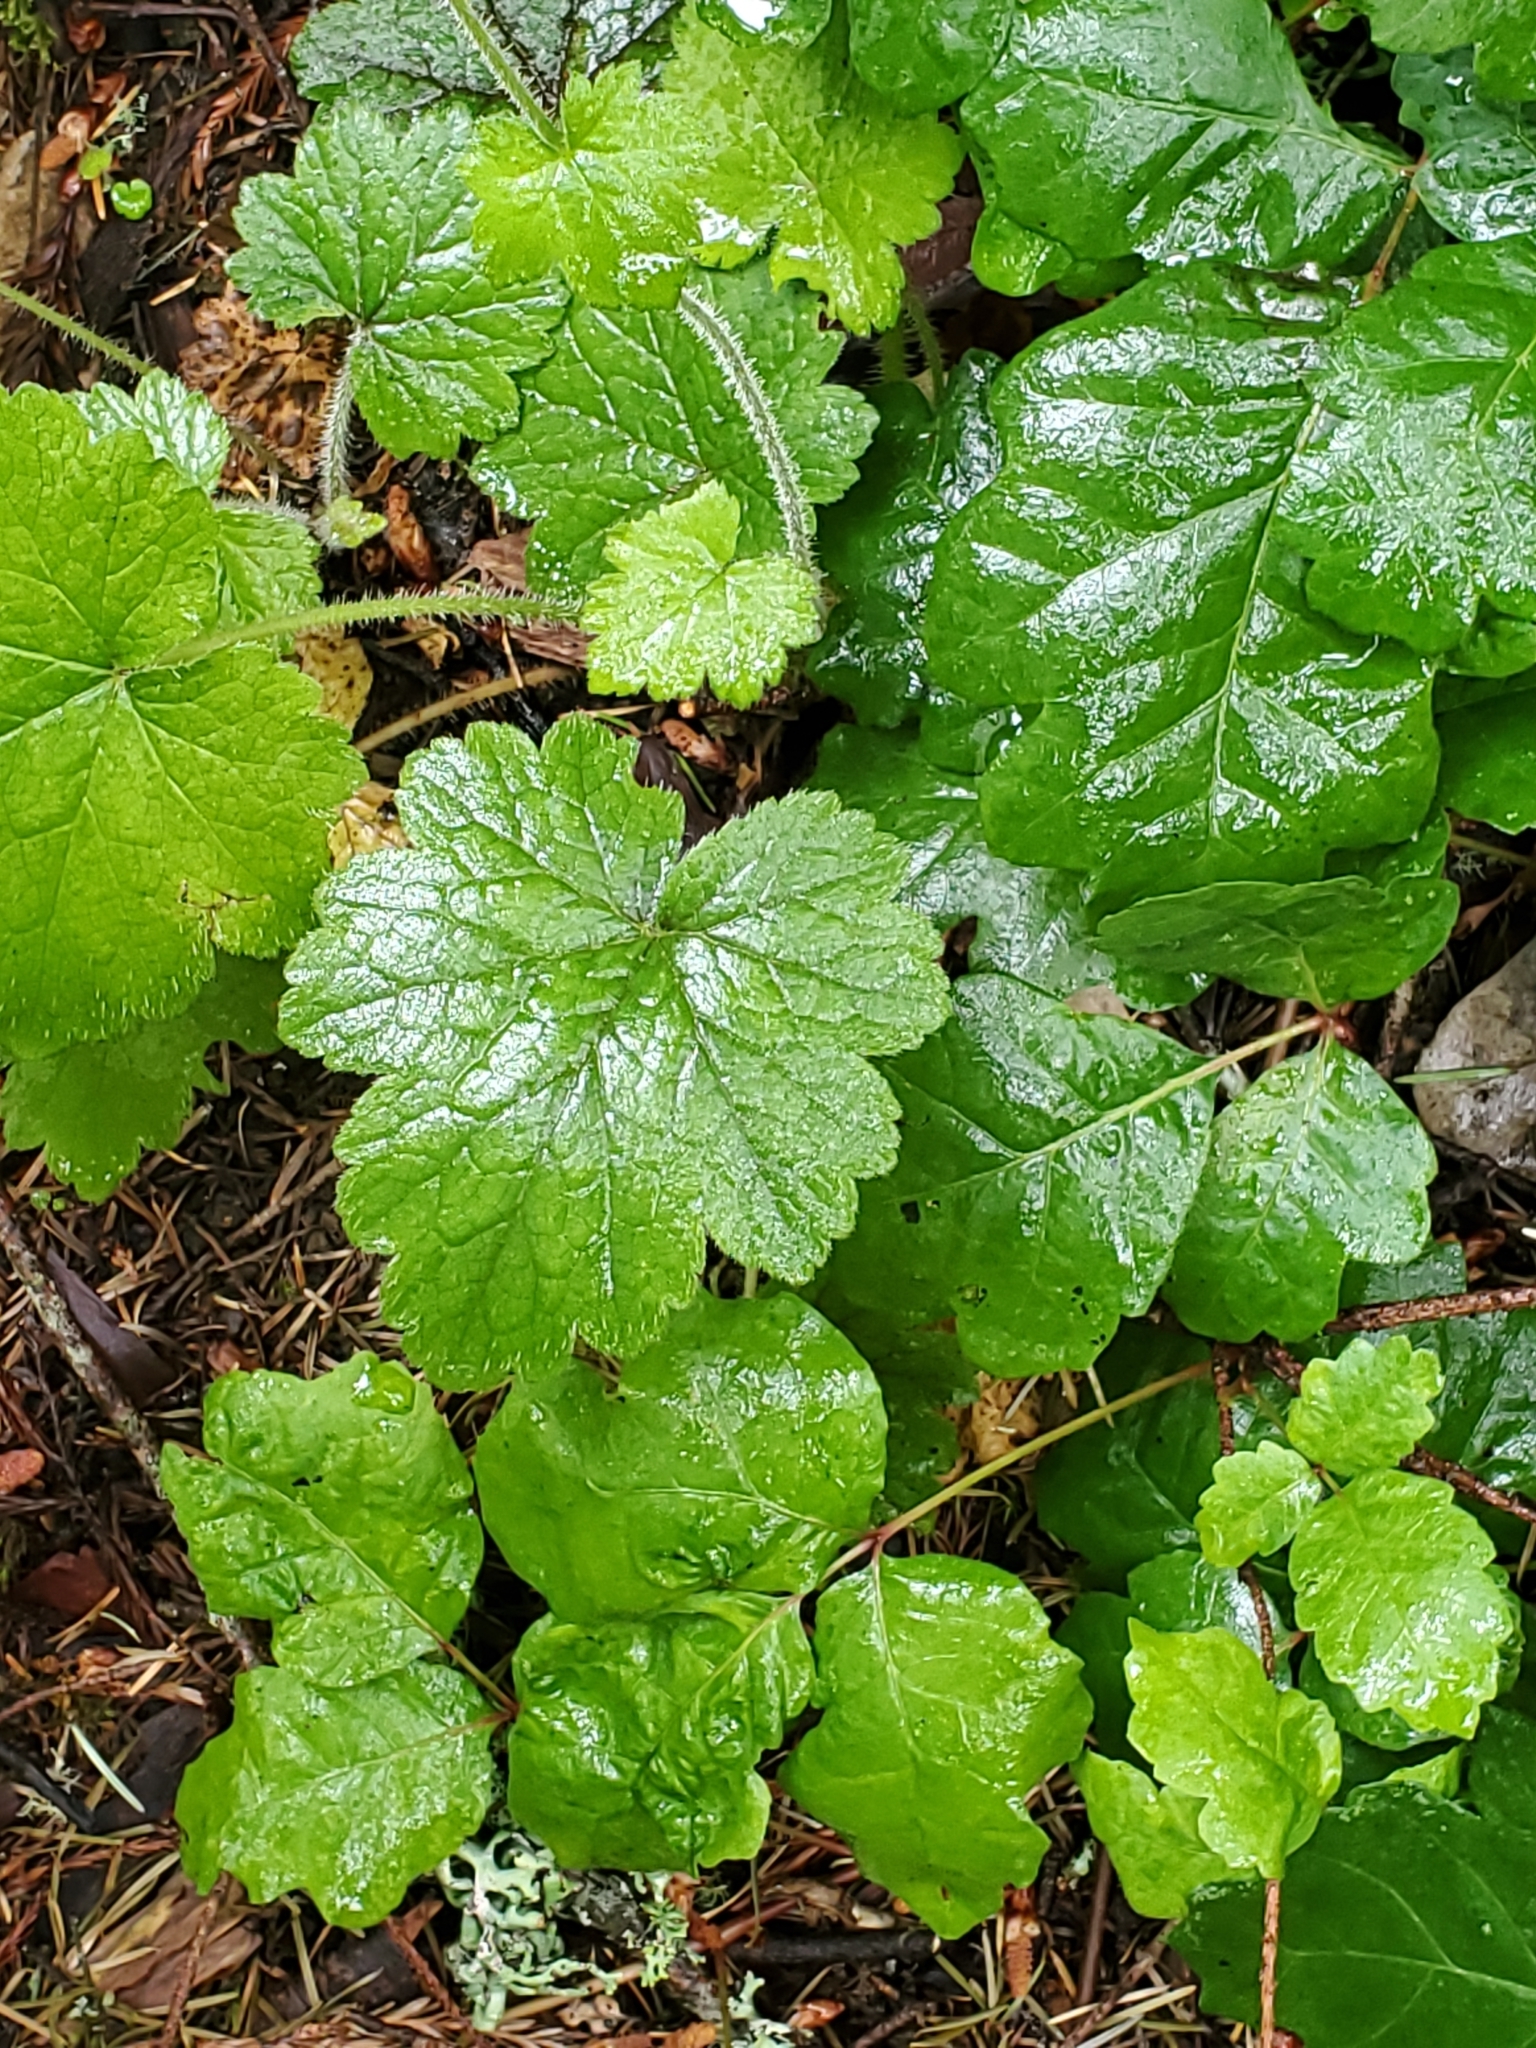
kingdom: Plantae
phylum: Tracheophyta
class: Magnoliopsida
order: Saxifragales
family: Saxifragaceae
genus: Tellima
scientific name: Tellima grandiflora
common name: Fringecups
